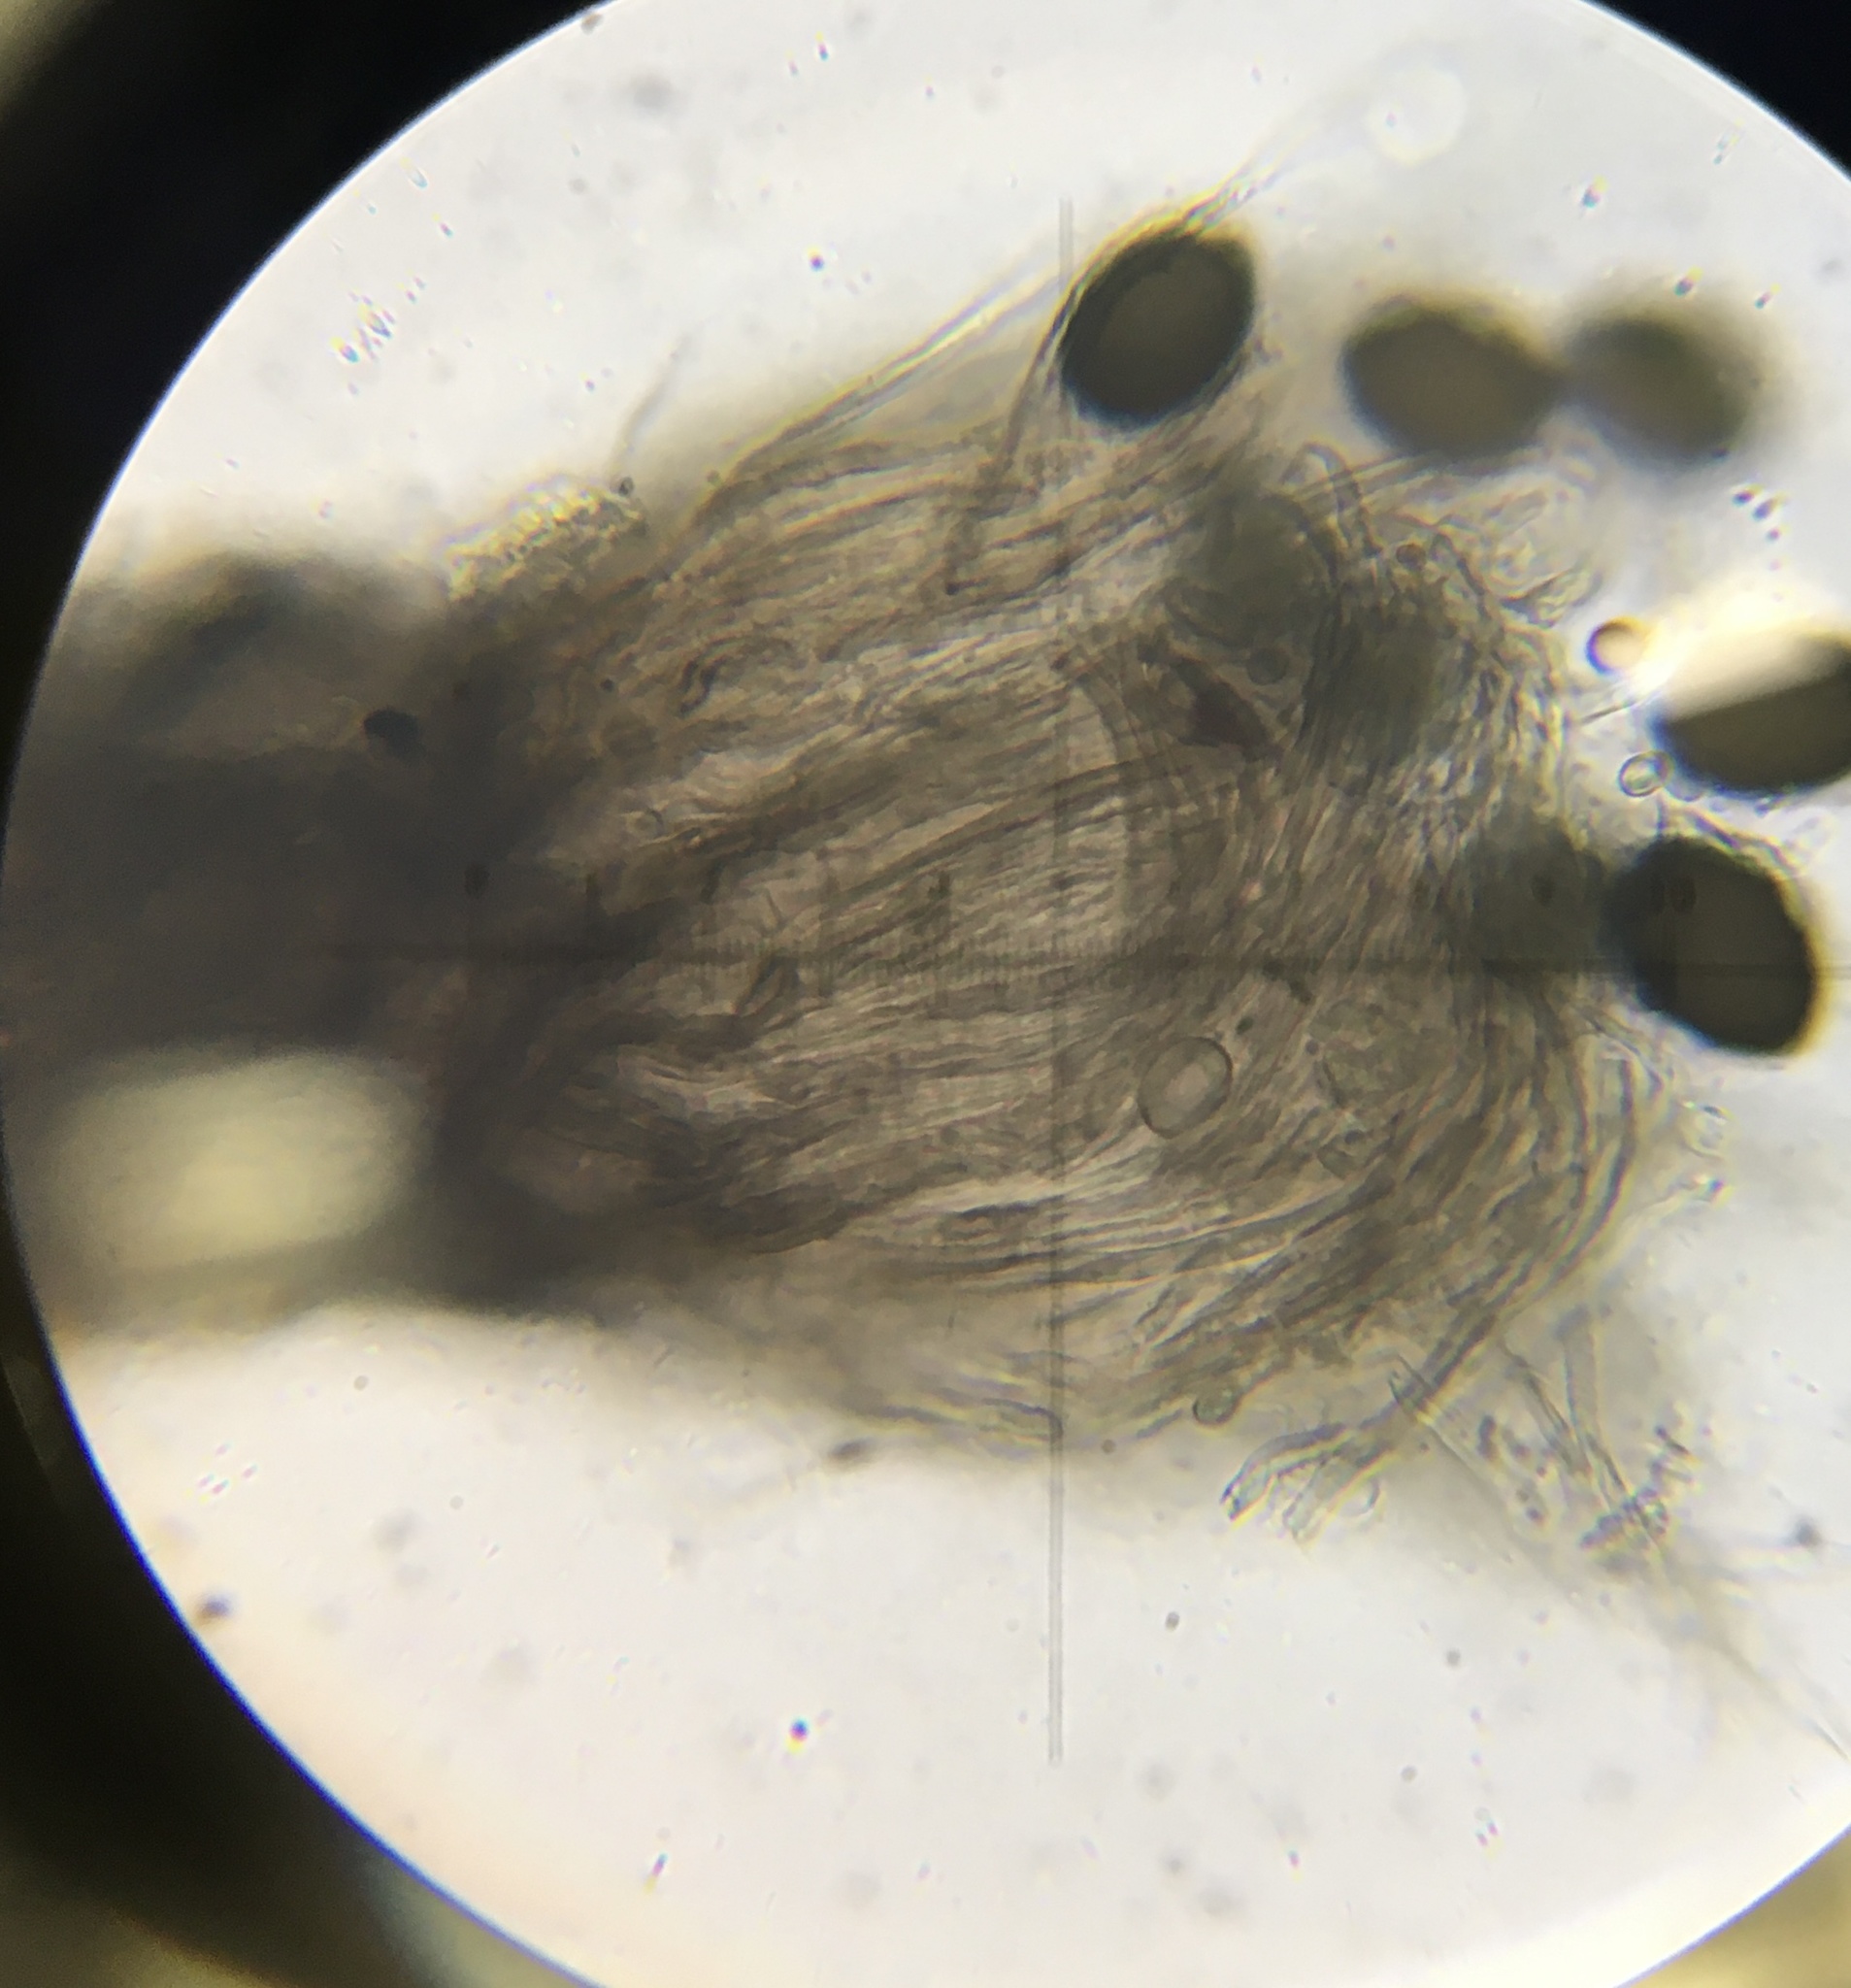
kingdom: Fungi
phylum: Ascomycota
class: Sordariomycetes
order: Ophiostomatales
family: Ophiostomataceae
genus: Sporothrix
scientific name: Sporothrix longicollis
